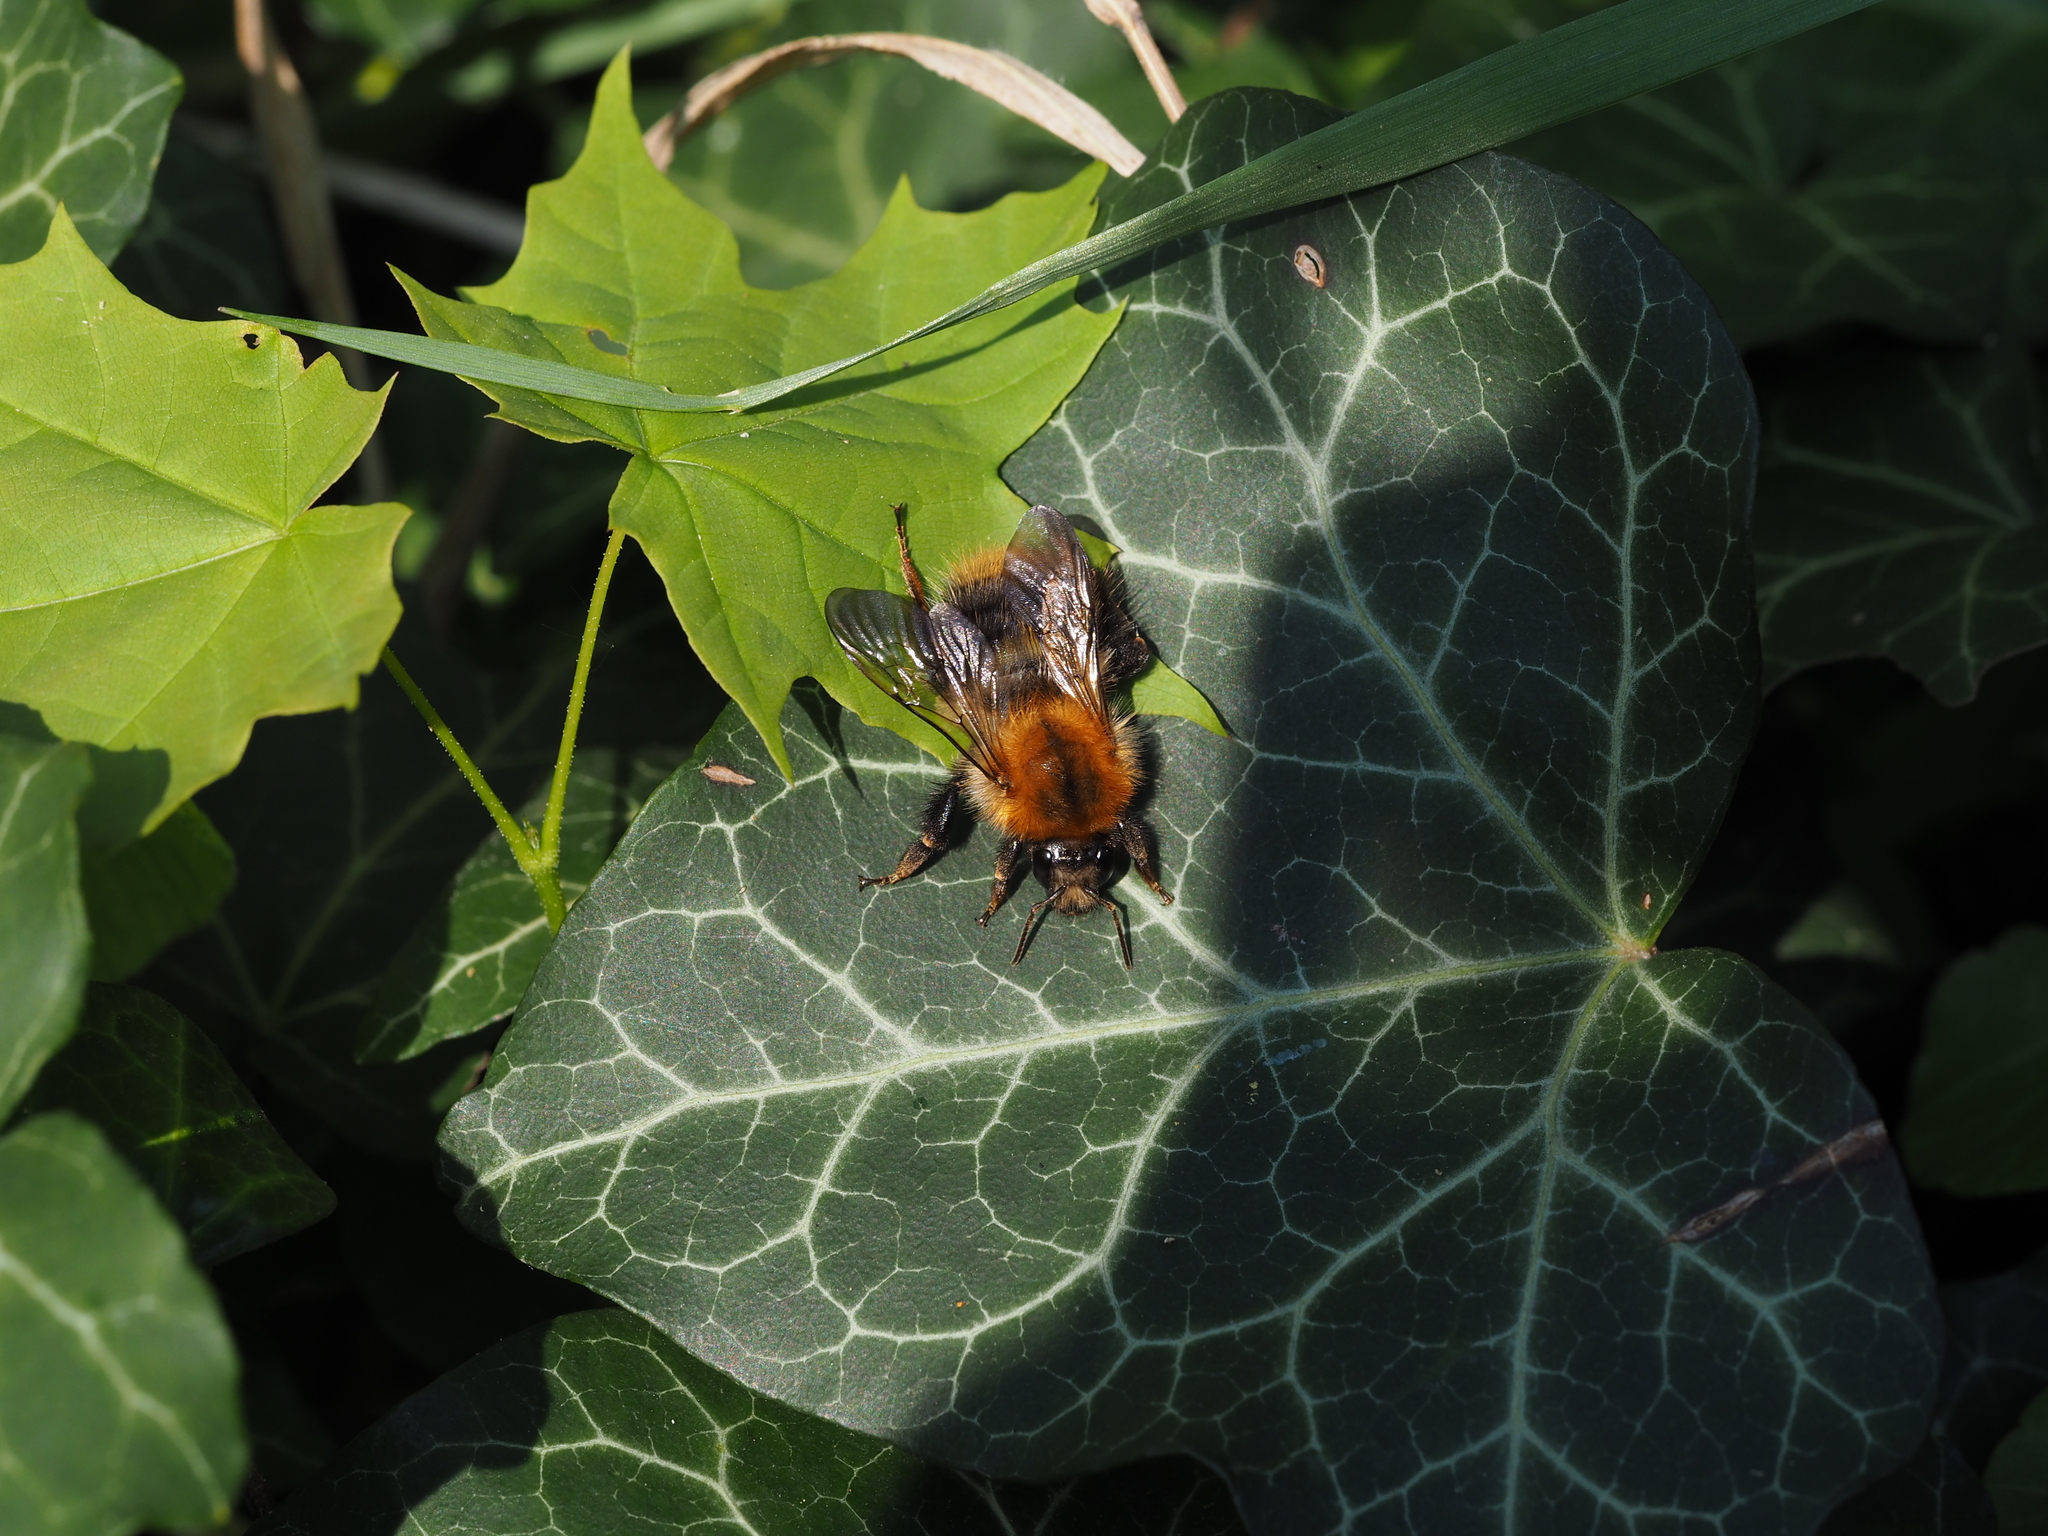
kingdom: Animalia
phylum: Arthropoda
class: Insecta
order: Hymenoptera
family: Apidae
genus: Bombus
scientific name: Bombus pascuorum
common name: Common carder bee
